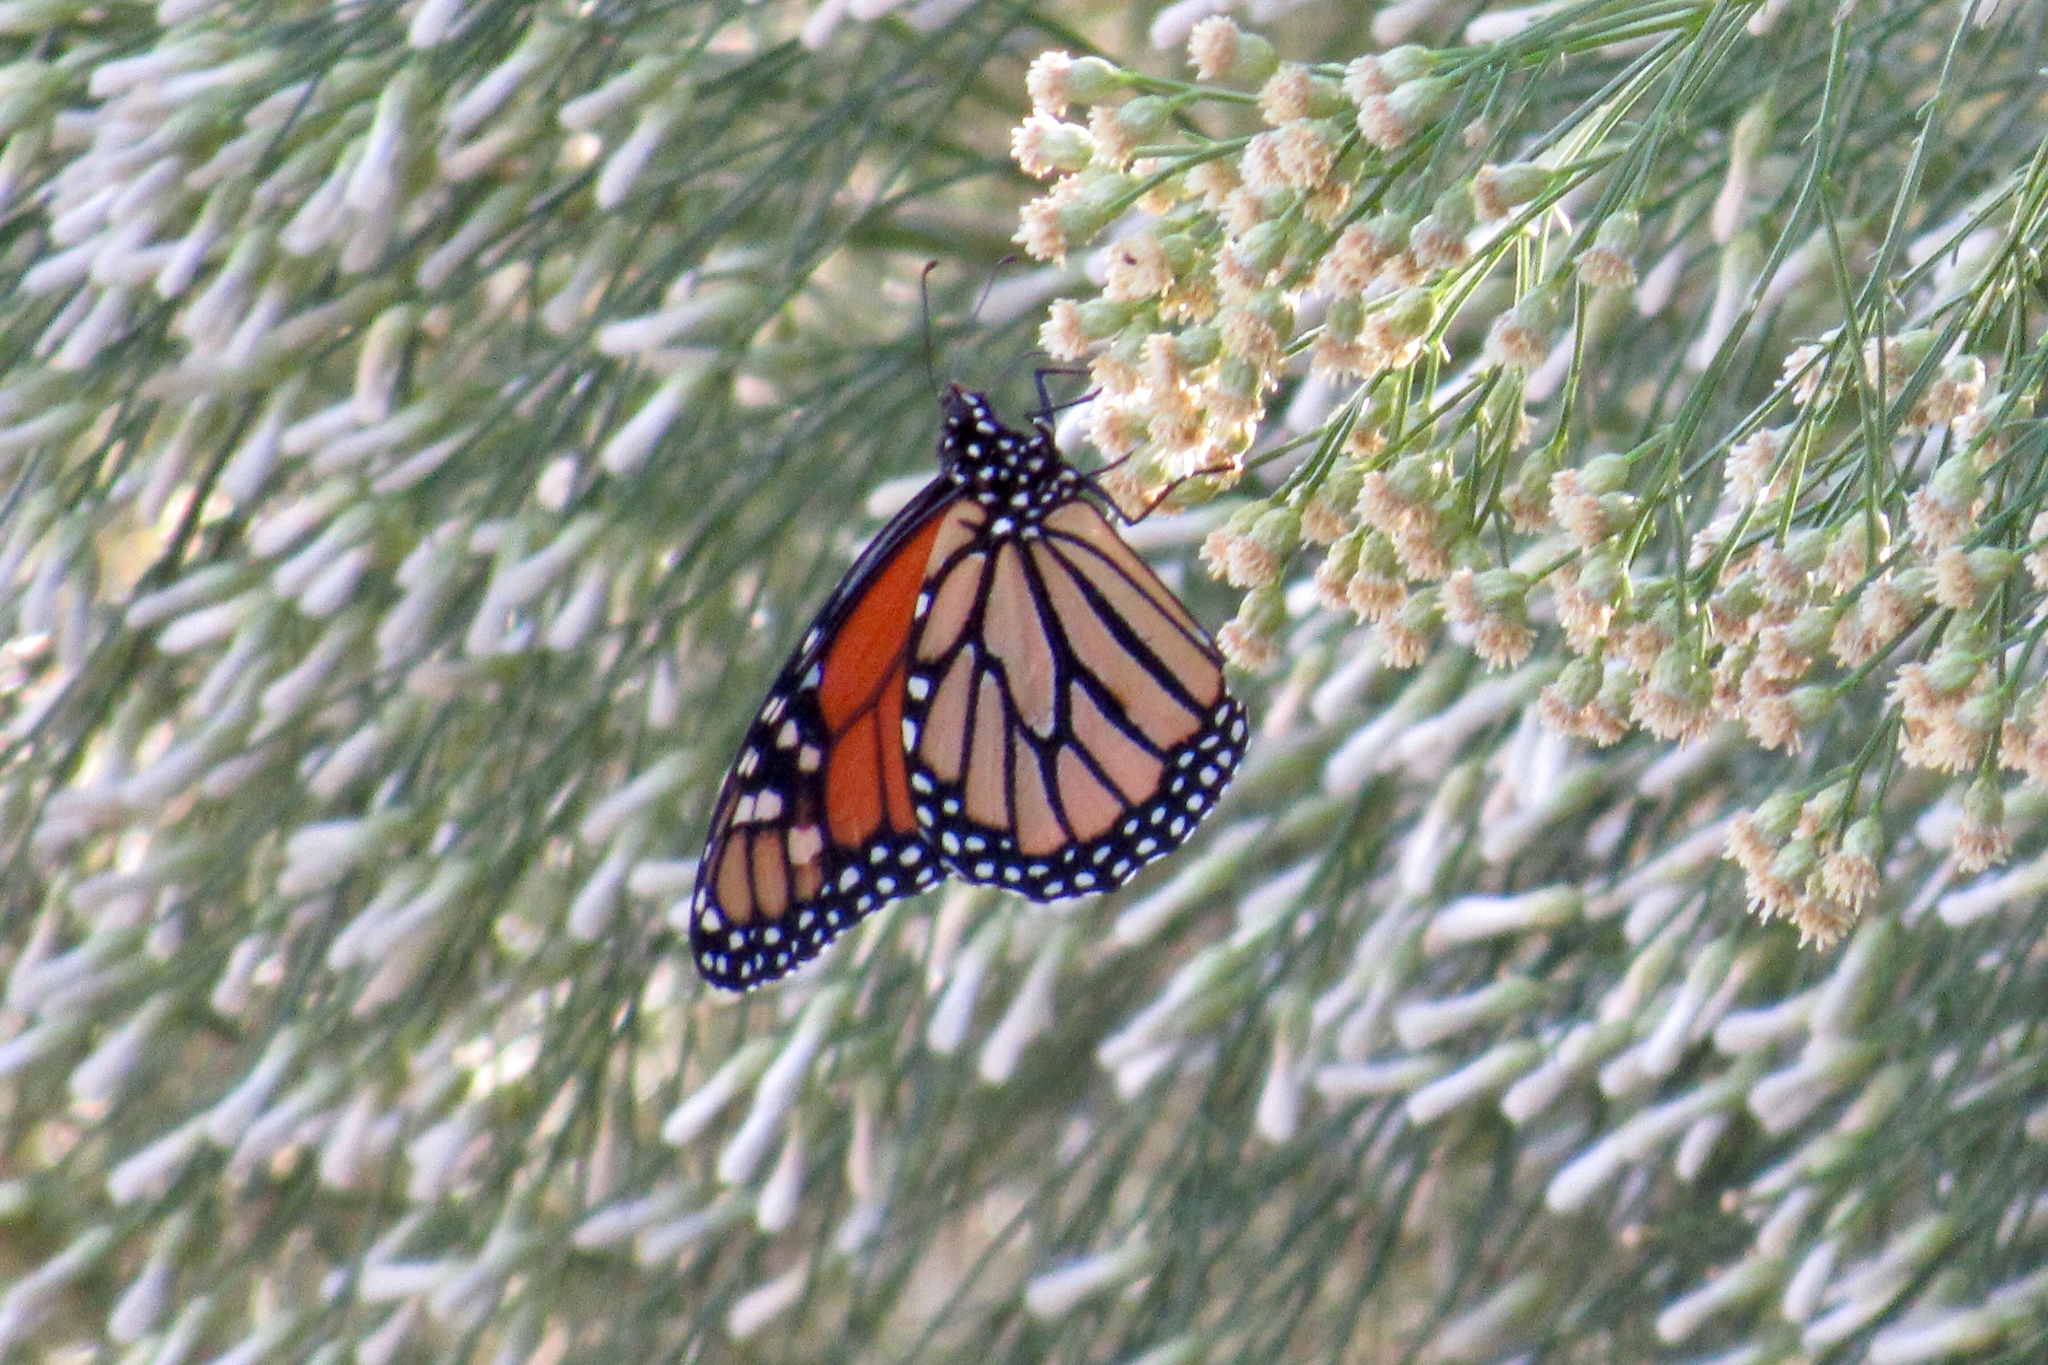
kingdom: Animalia
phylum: Arthropoda
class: Insecta
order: Lepidoptera
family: Nymphalidae
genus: Danaus
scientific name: Danaus plexippus
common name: Monarch
